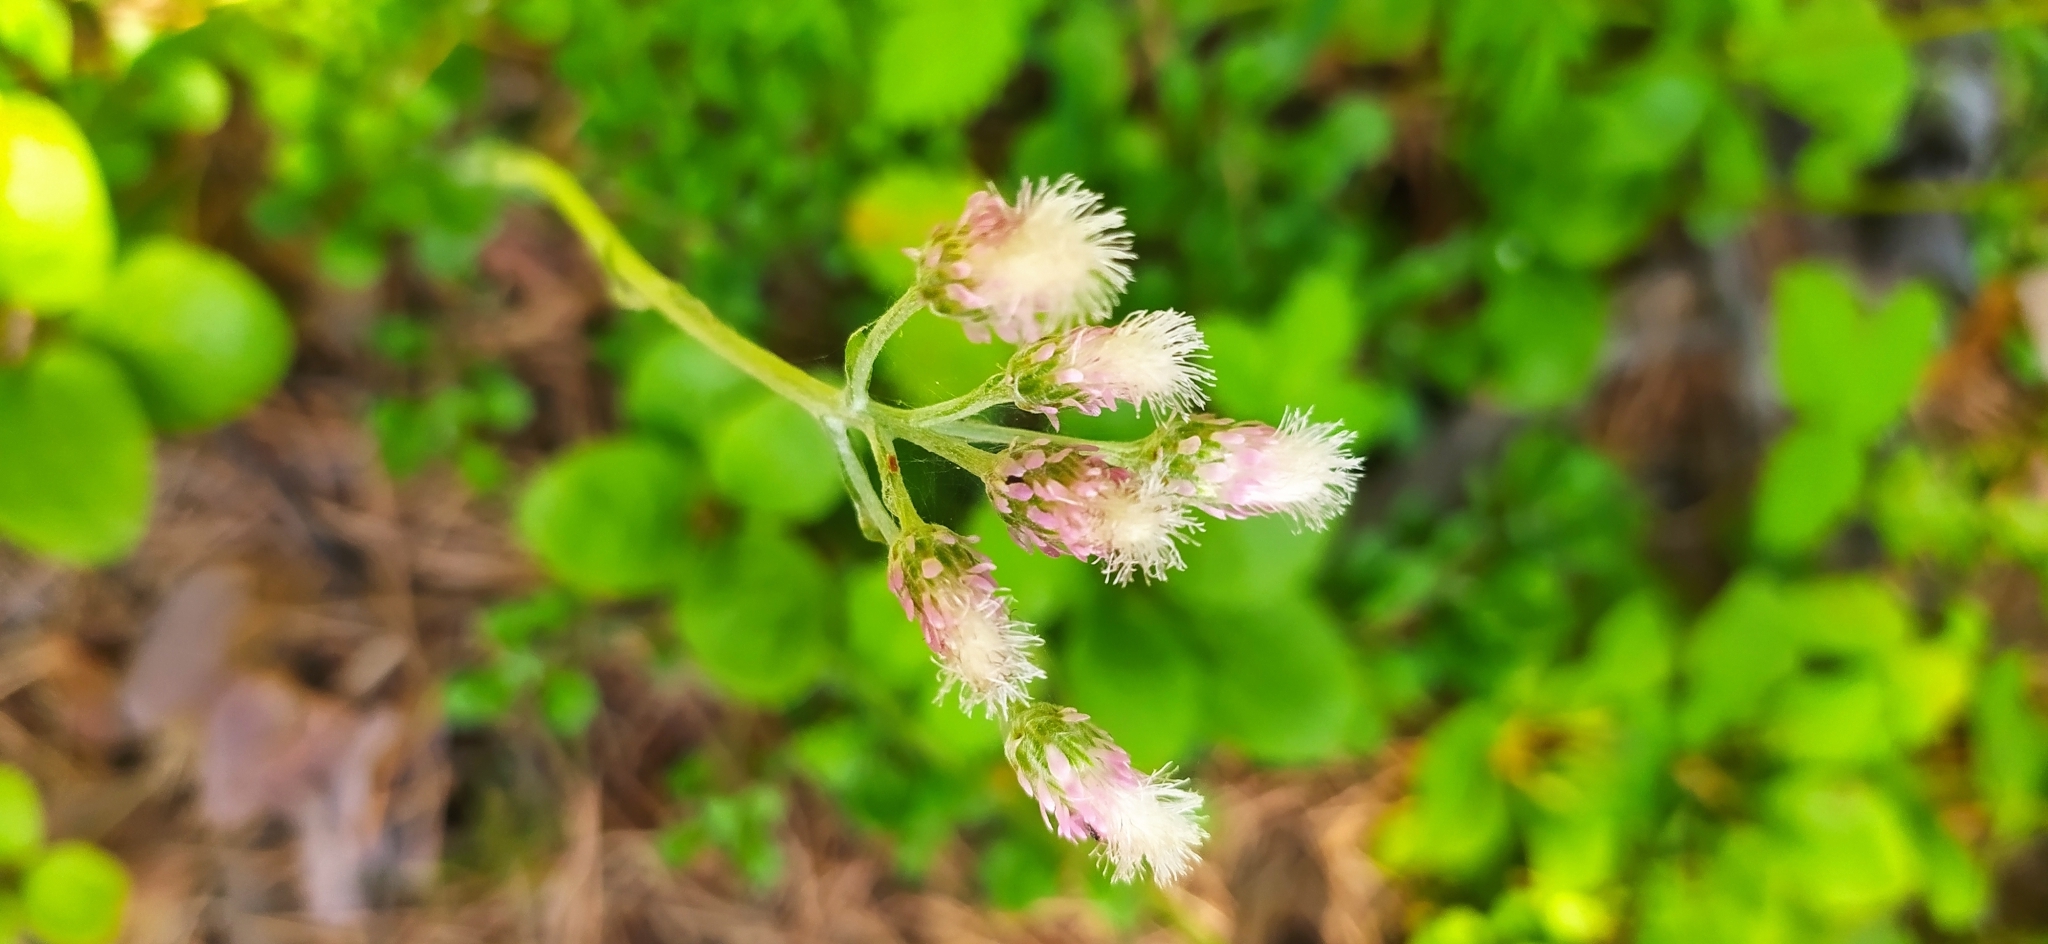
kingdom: Plantae
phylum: Tracheophyta
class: Magnoliopsida
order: Asterales
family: Asteraceae
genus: Antennaria
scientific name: Antennaria dioica
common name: Mountain everlasting
